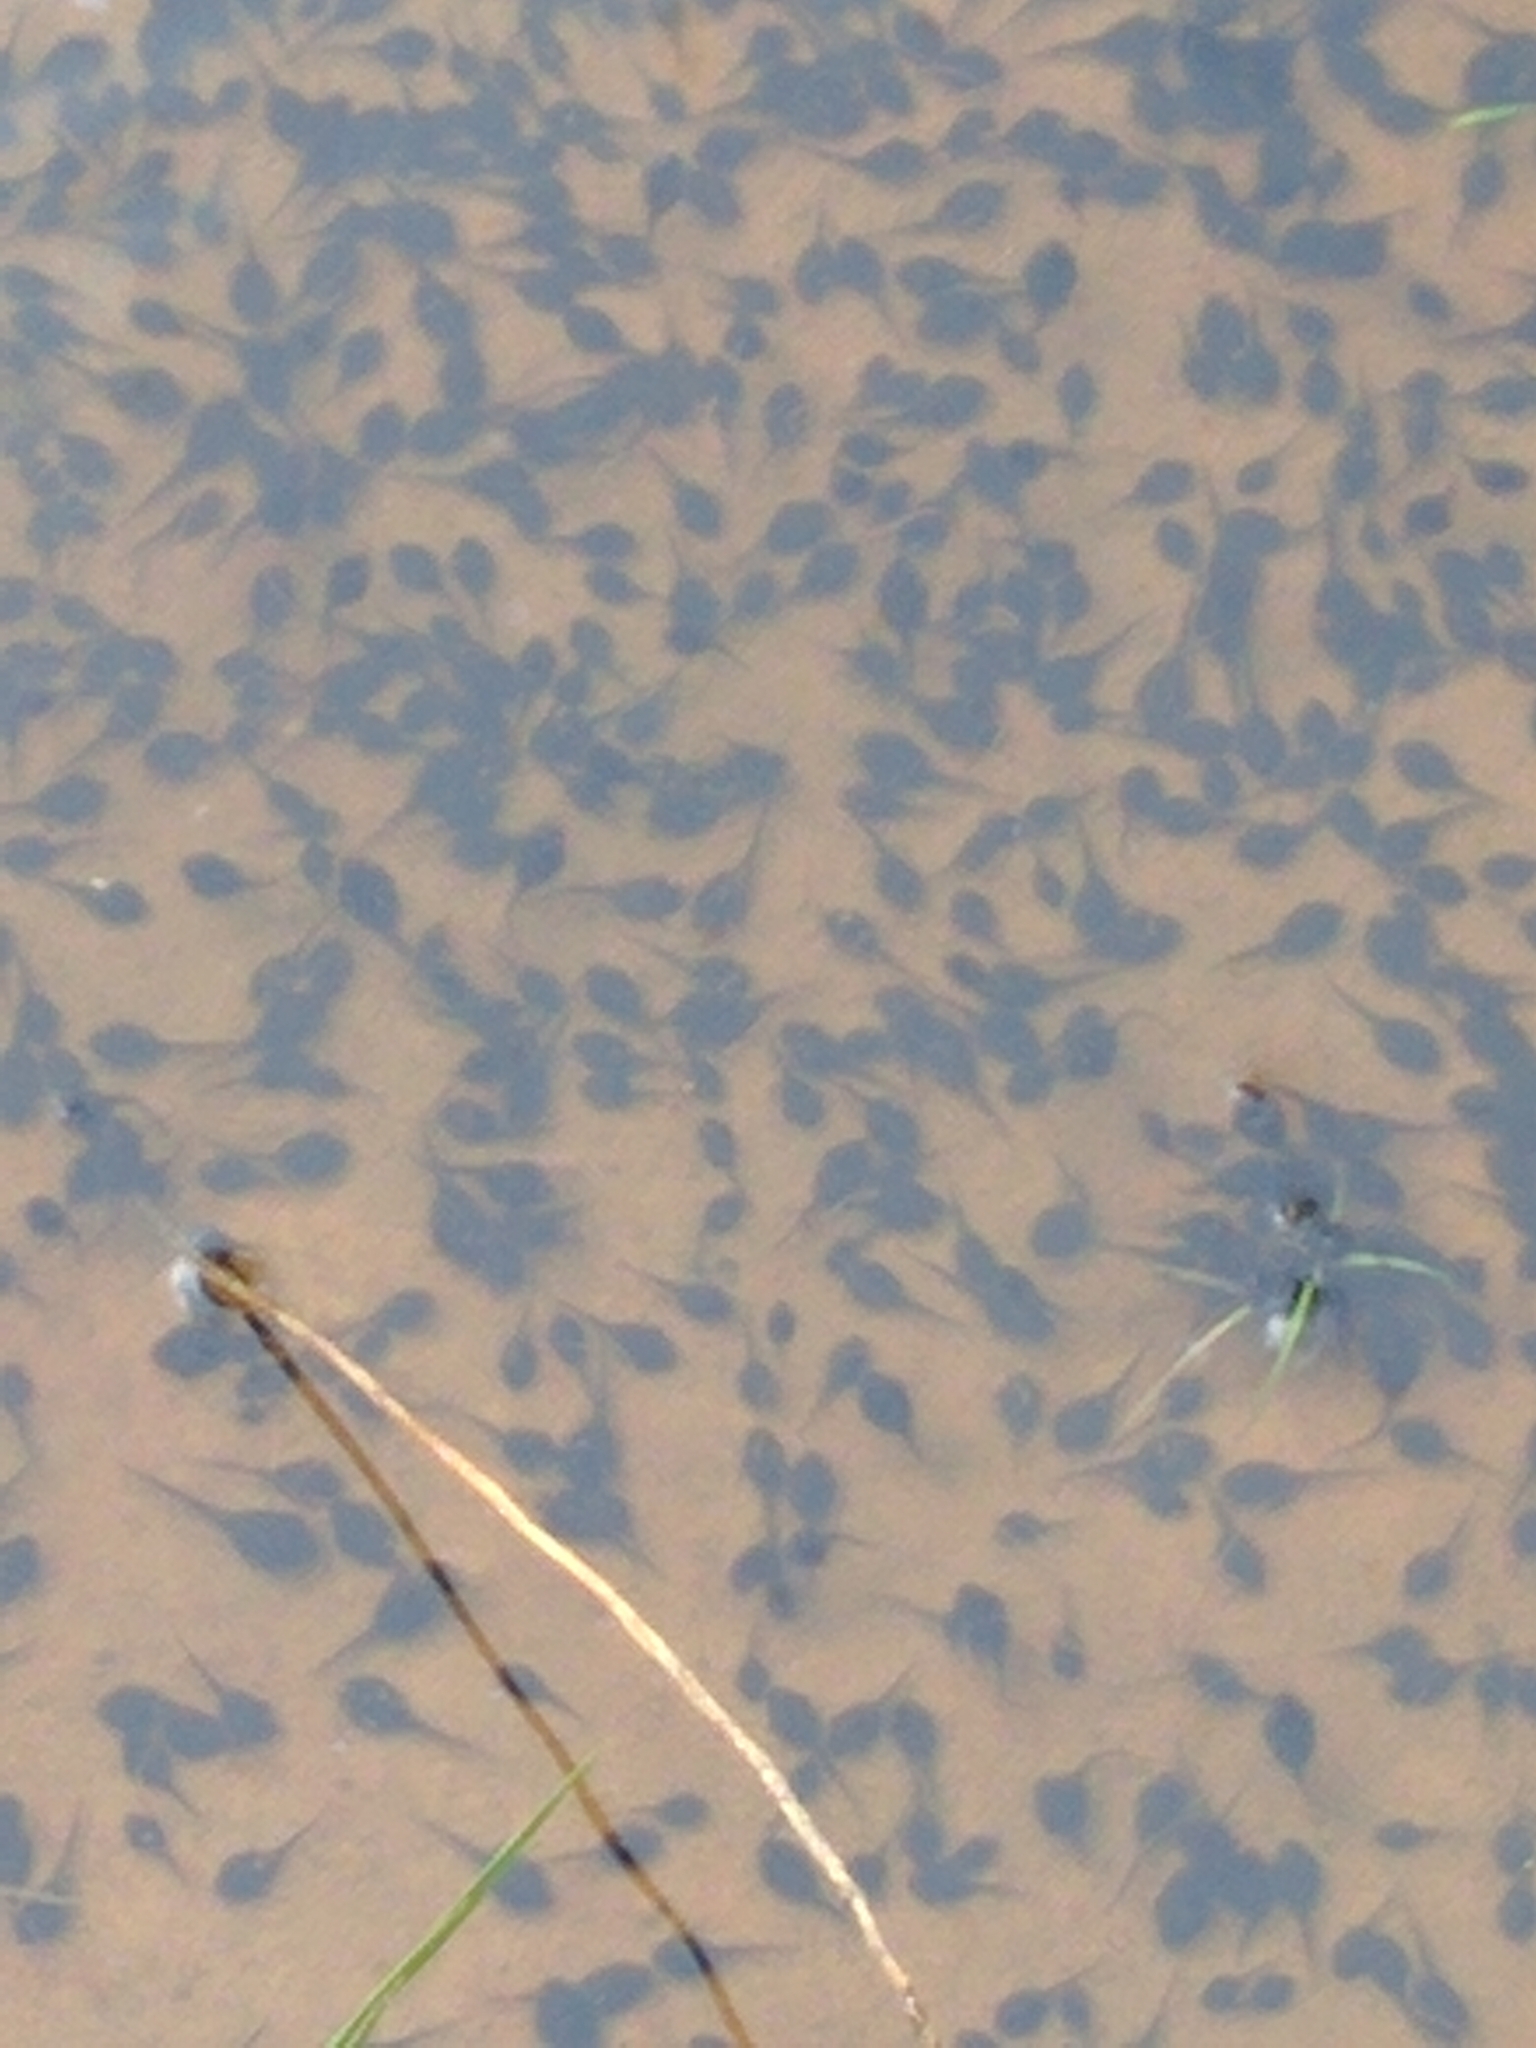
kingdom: Animalia
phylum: Chordata
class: Amphibia
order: Anura
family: Bufonidae
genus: Anaxyrus
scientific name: Anaxyrus fowleri
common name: Fowler's toad
